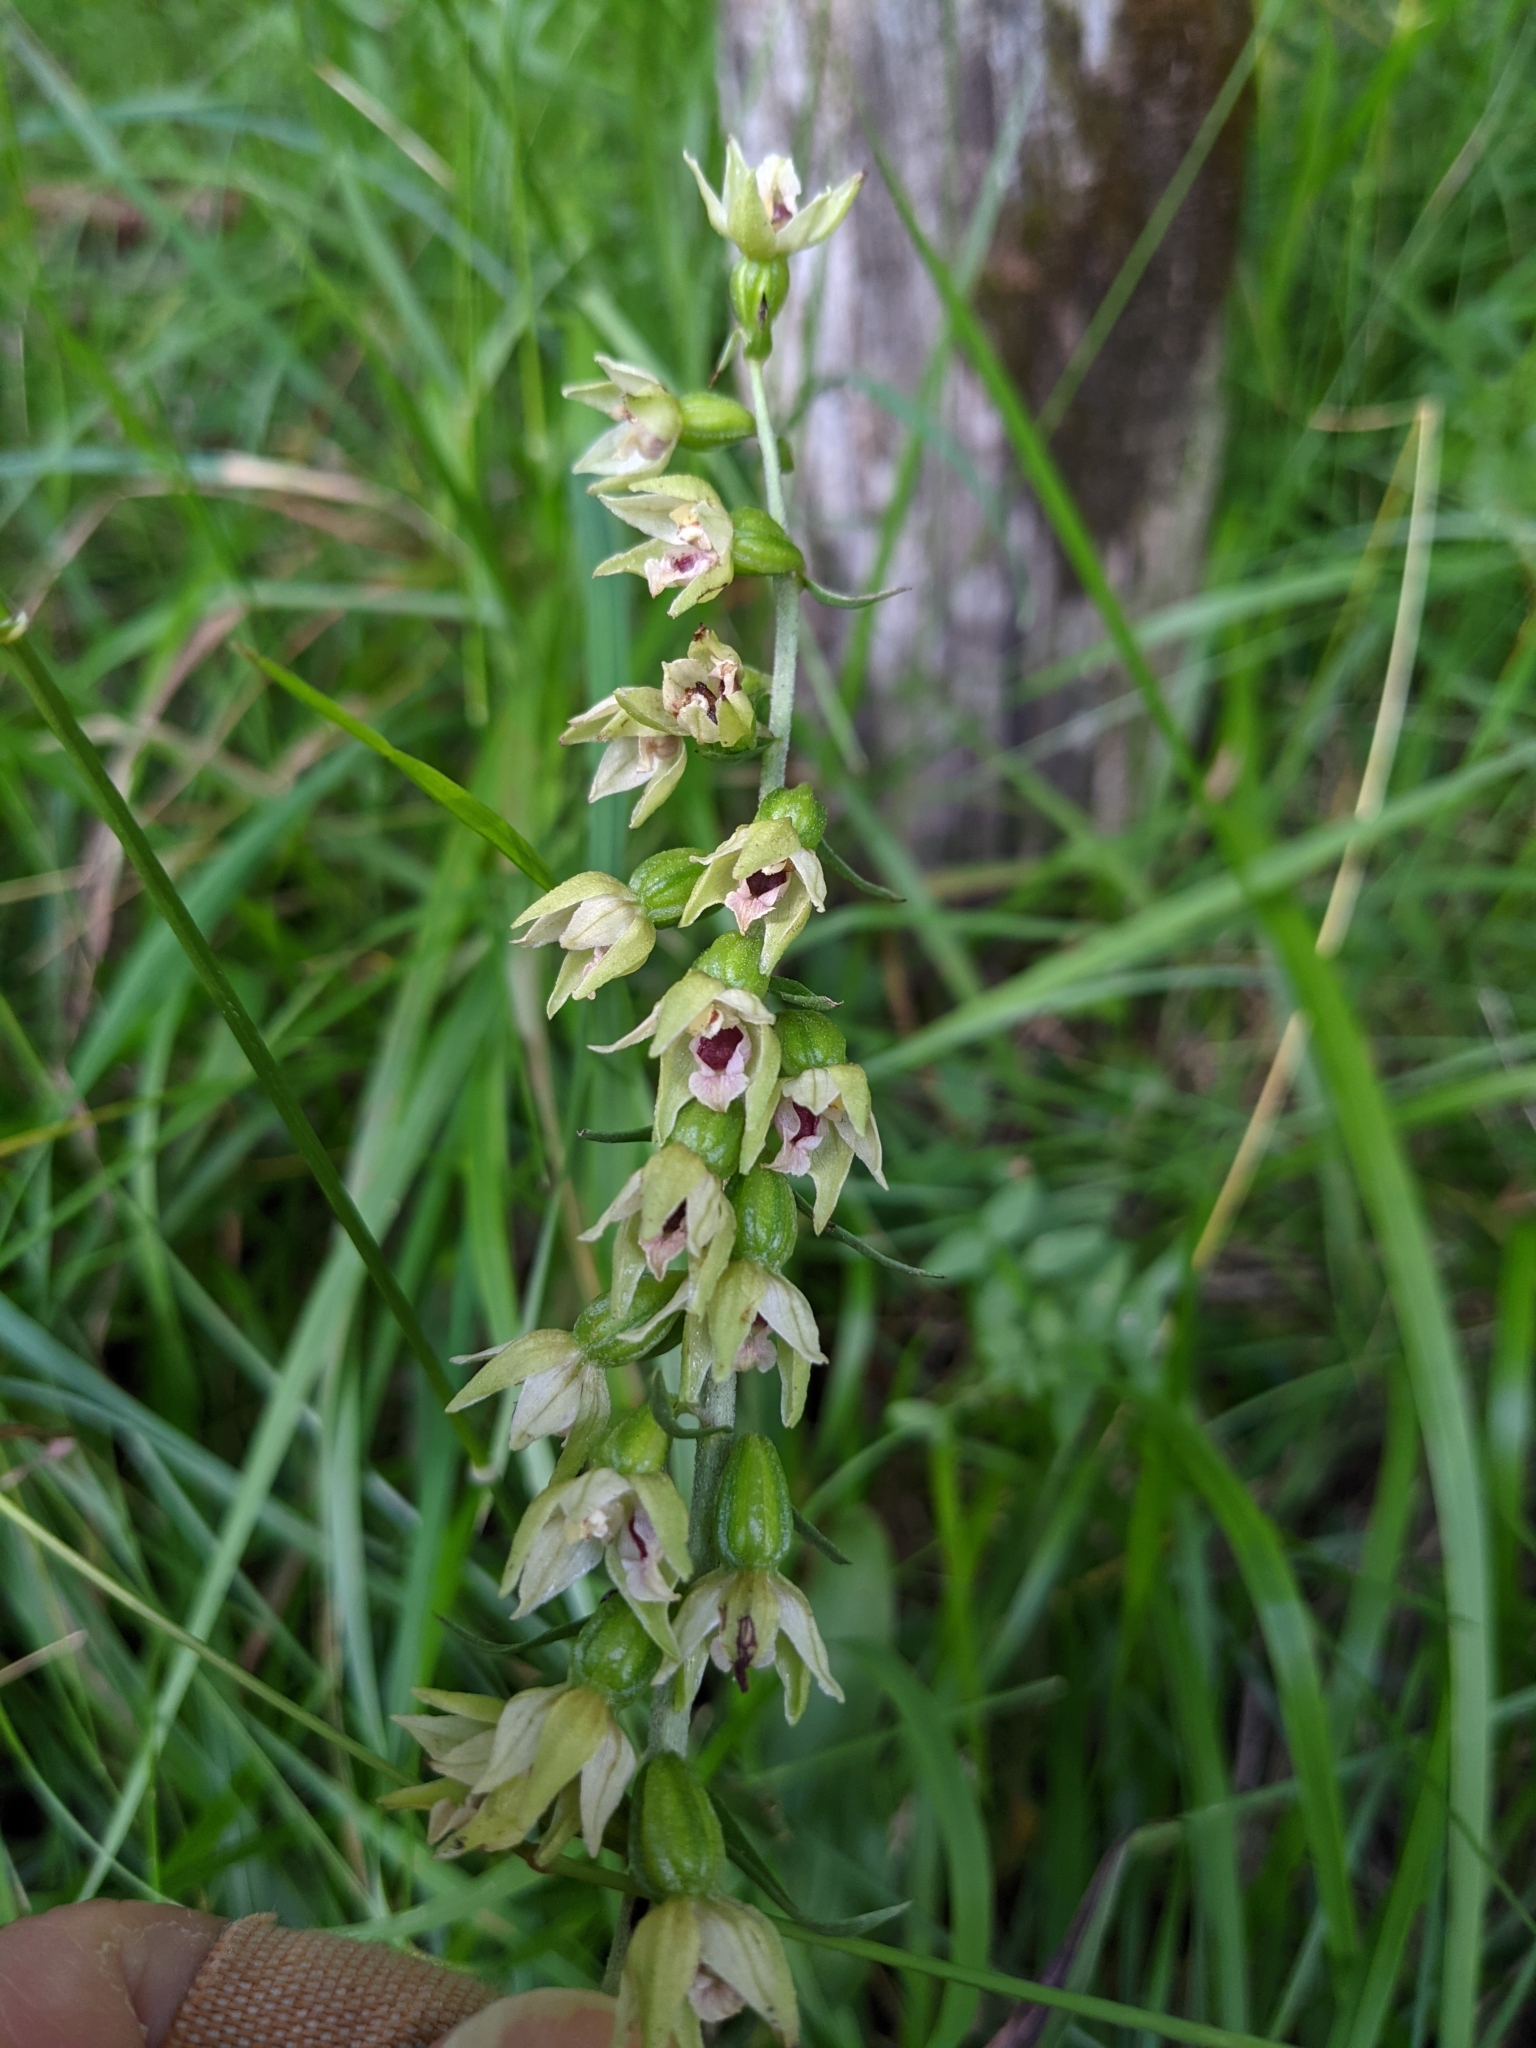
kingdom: Plantae
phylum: Tracheophyta
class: Liliopsida
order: Asparagales
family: Orchidaceae
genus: Epipactis
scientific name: Epipactis helleborine
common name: Broad-leaved helleborine
